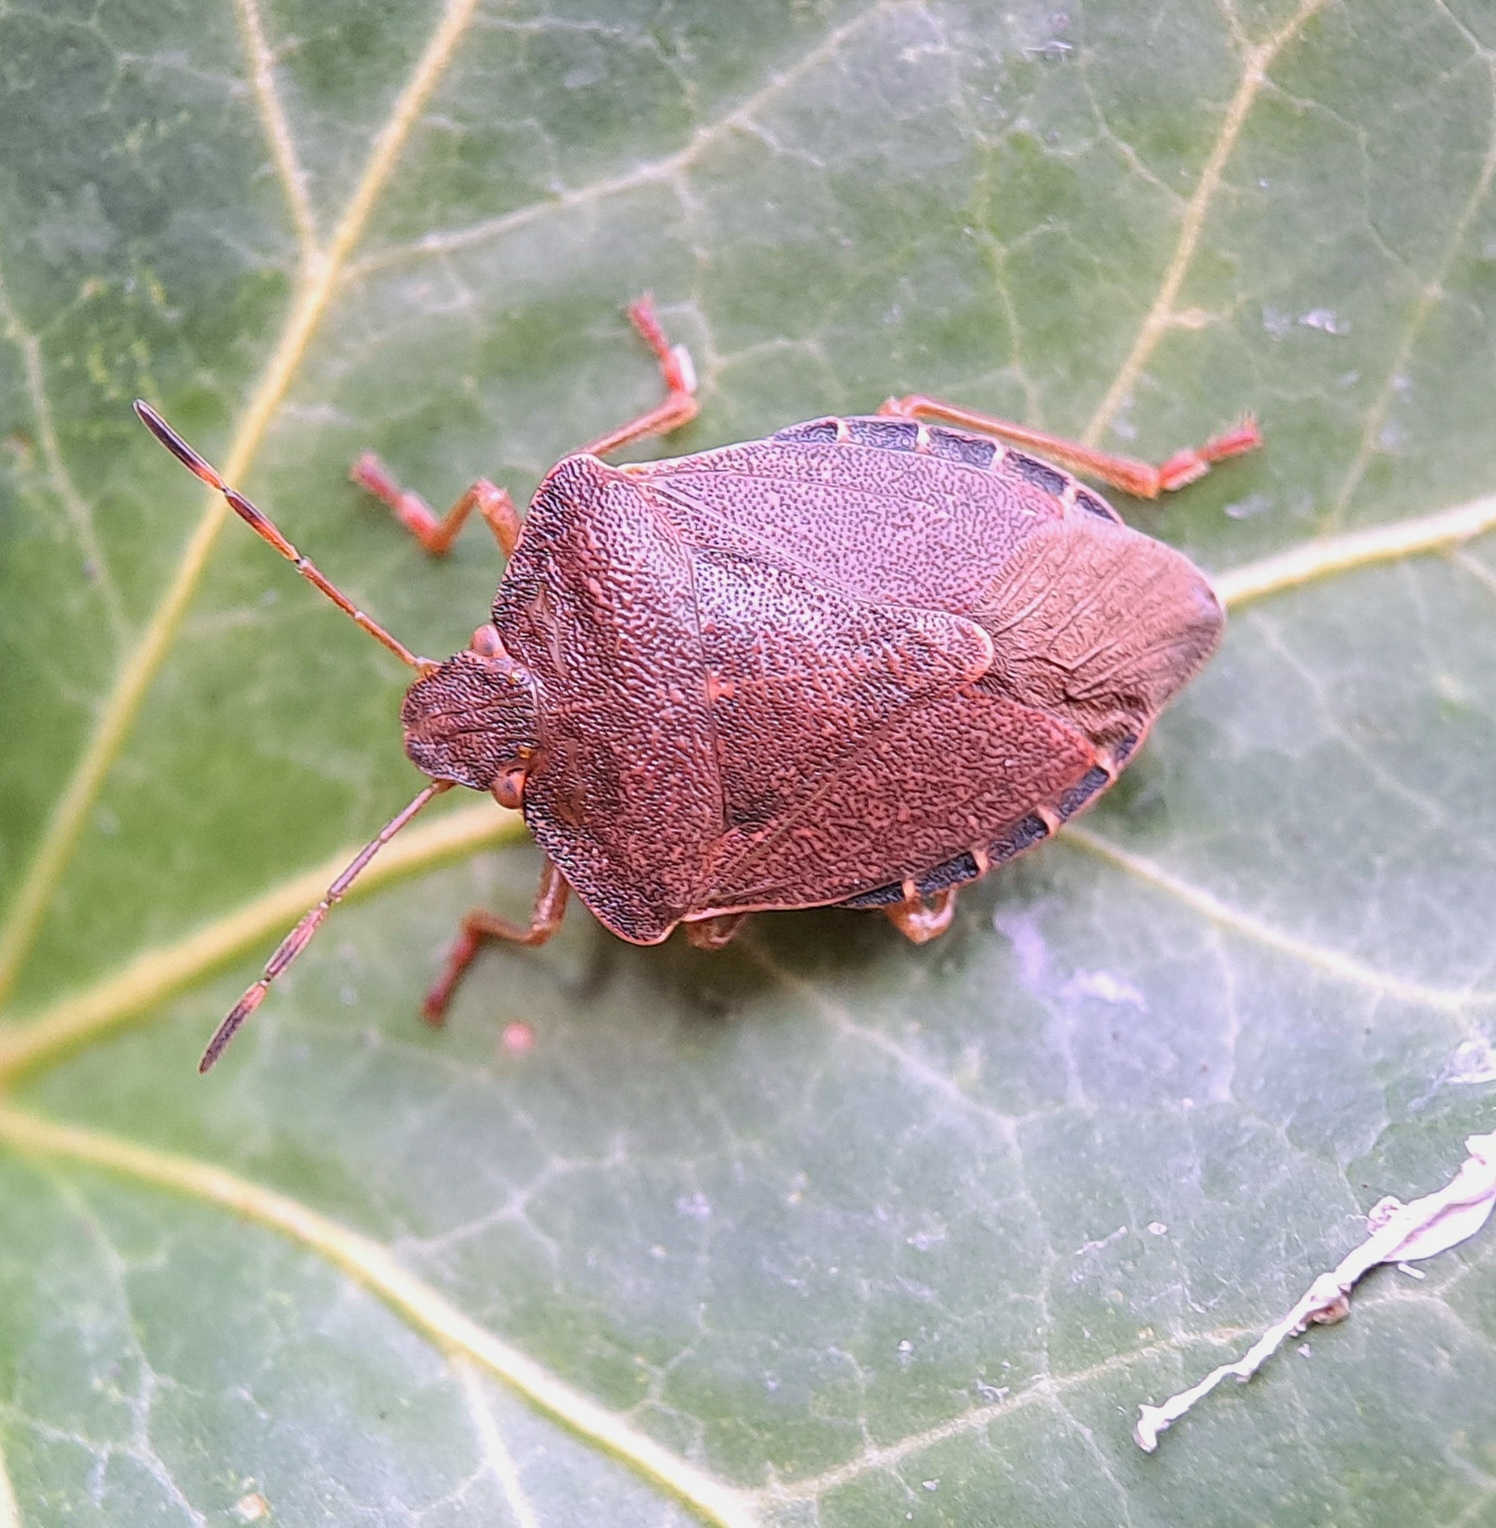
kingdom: Animalia
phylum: Arthropoda
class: Insecta
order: Hemiptera
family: Pentatomidae
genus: Palomena
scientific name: Palomena prasina
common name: Green shieldbug
